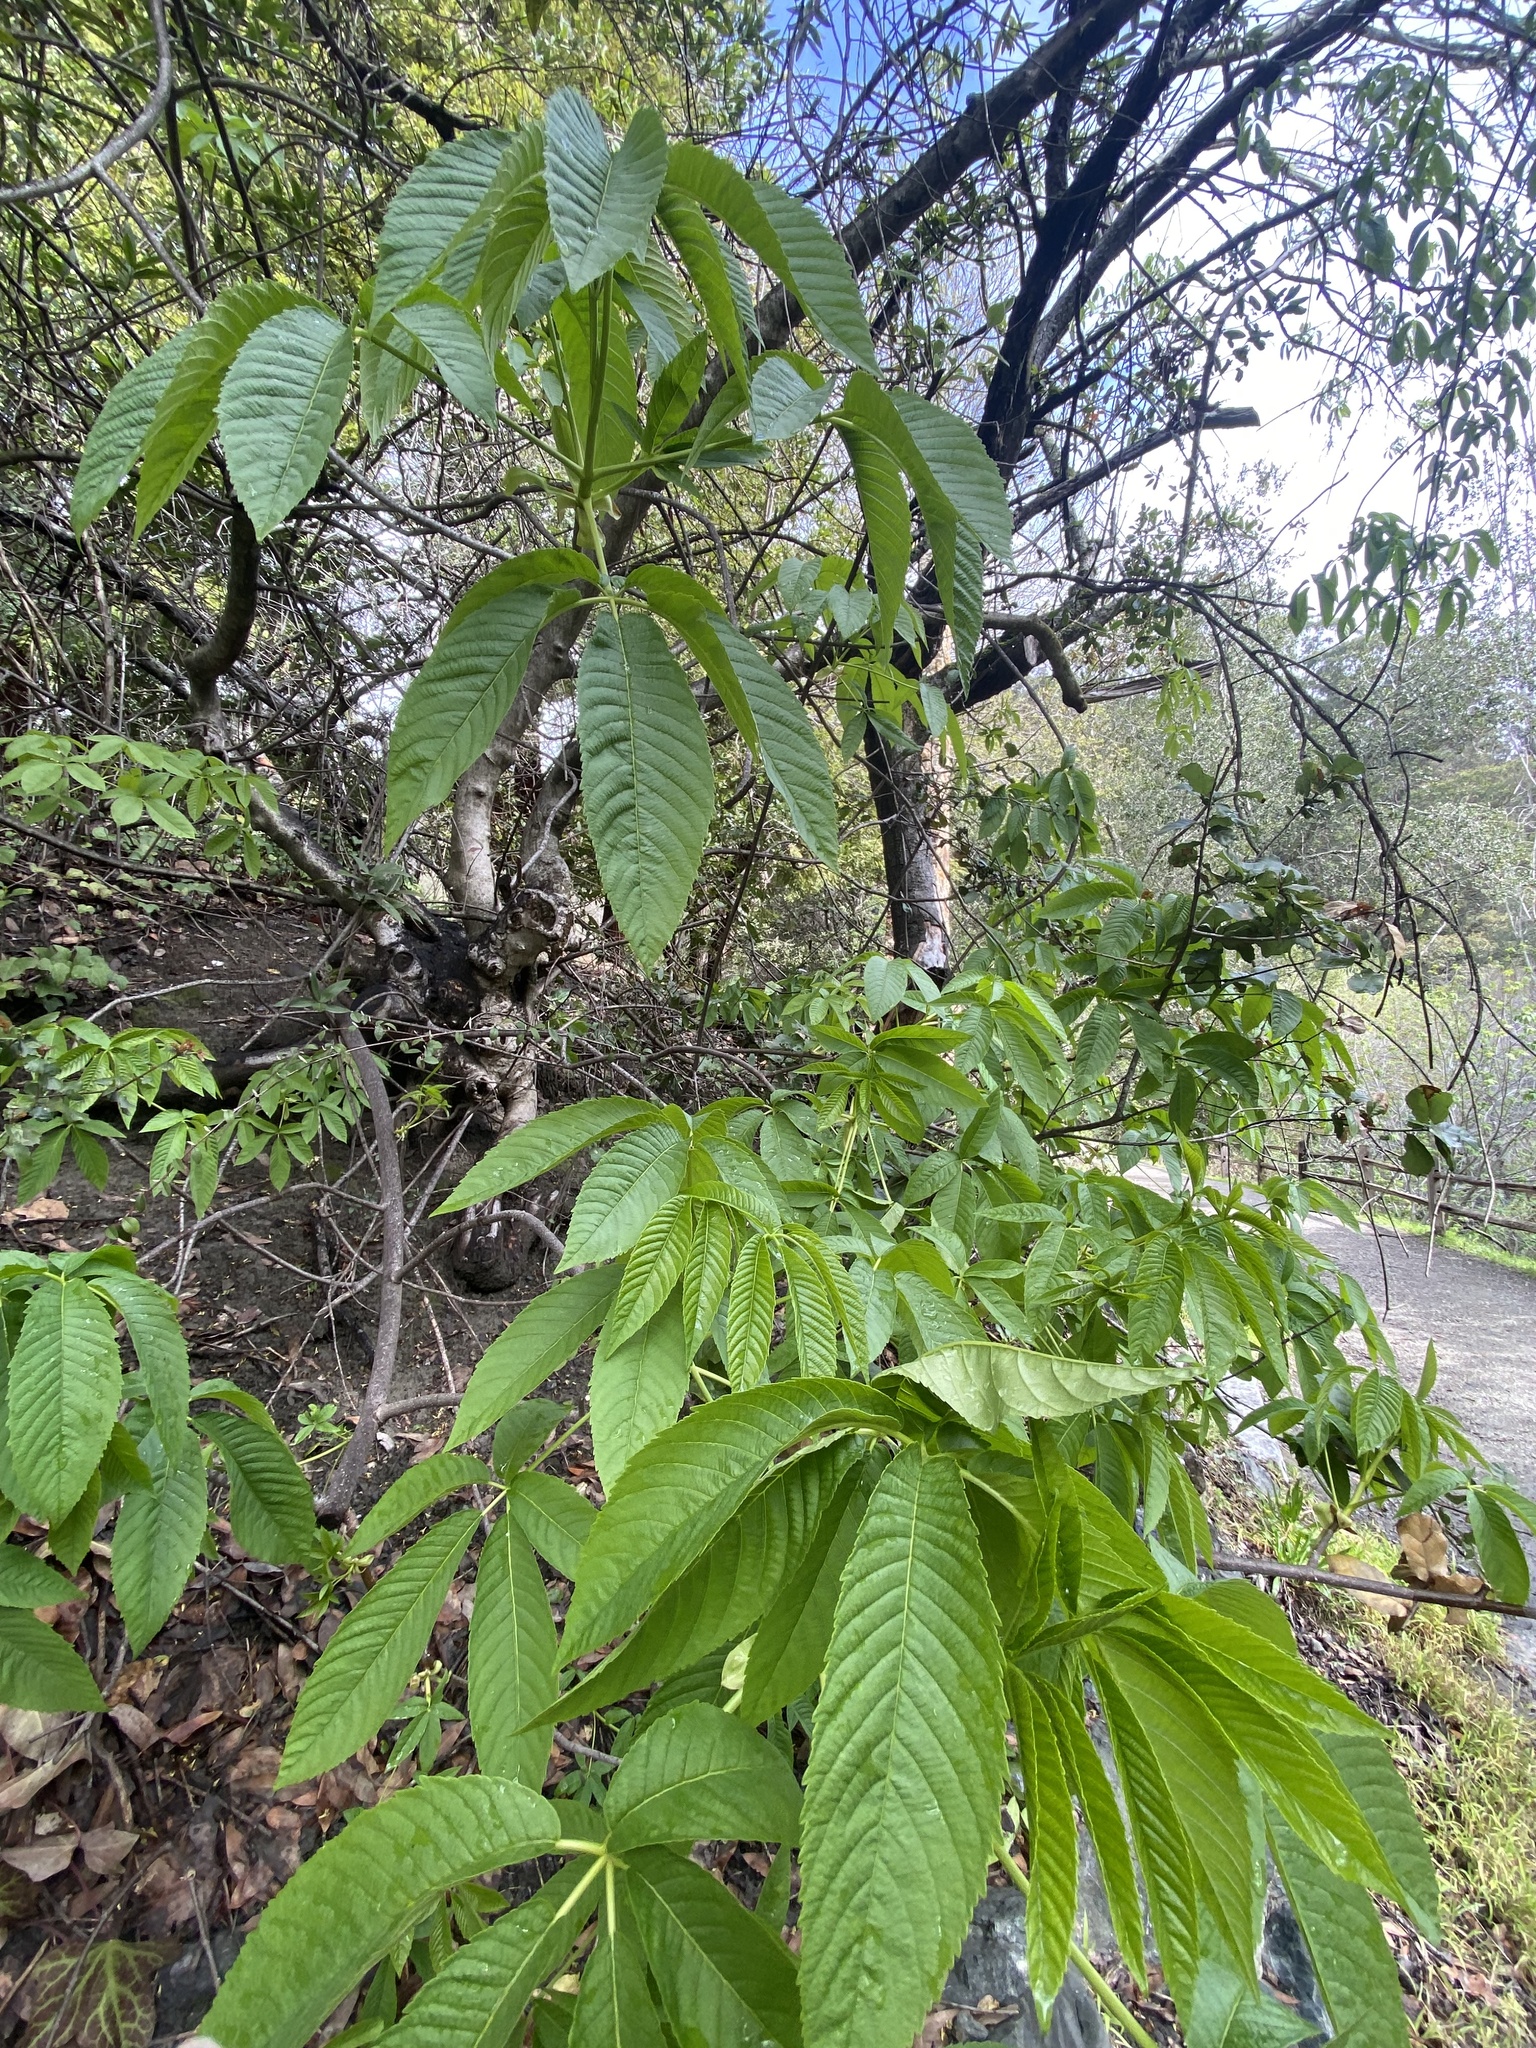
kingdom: Plantae
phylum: Tracheophyta
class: Magnoliopsida
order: Sapindales
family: Sapindaceae
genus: Aesculus
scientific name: Aesculus californica
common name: California buckeye
